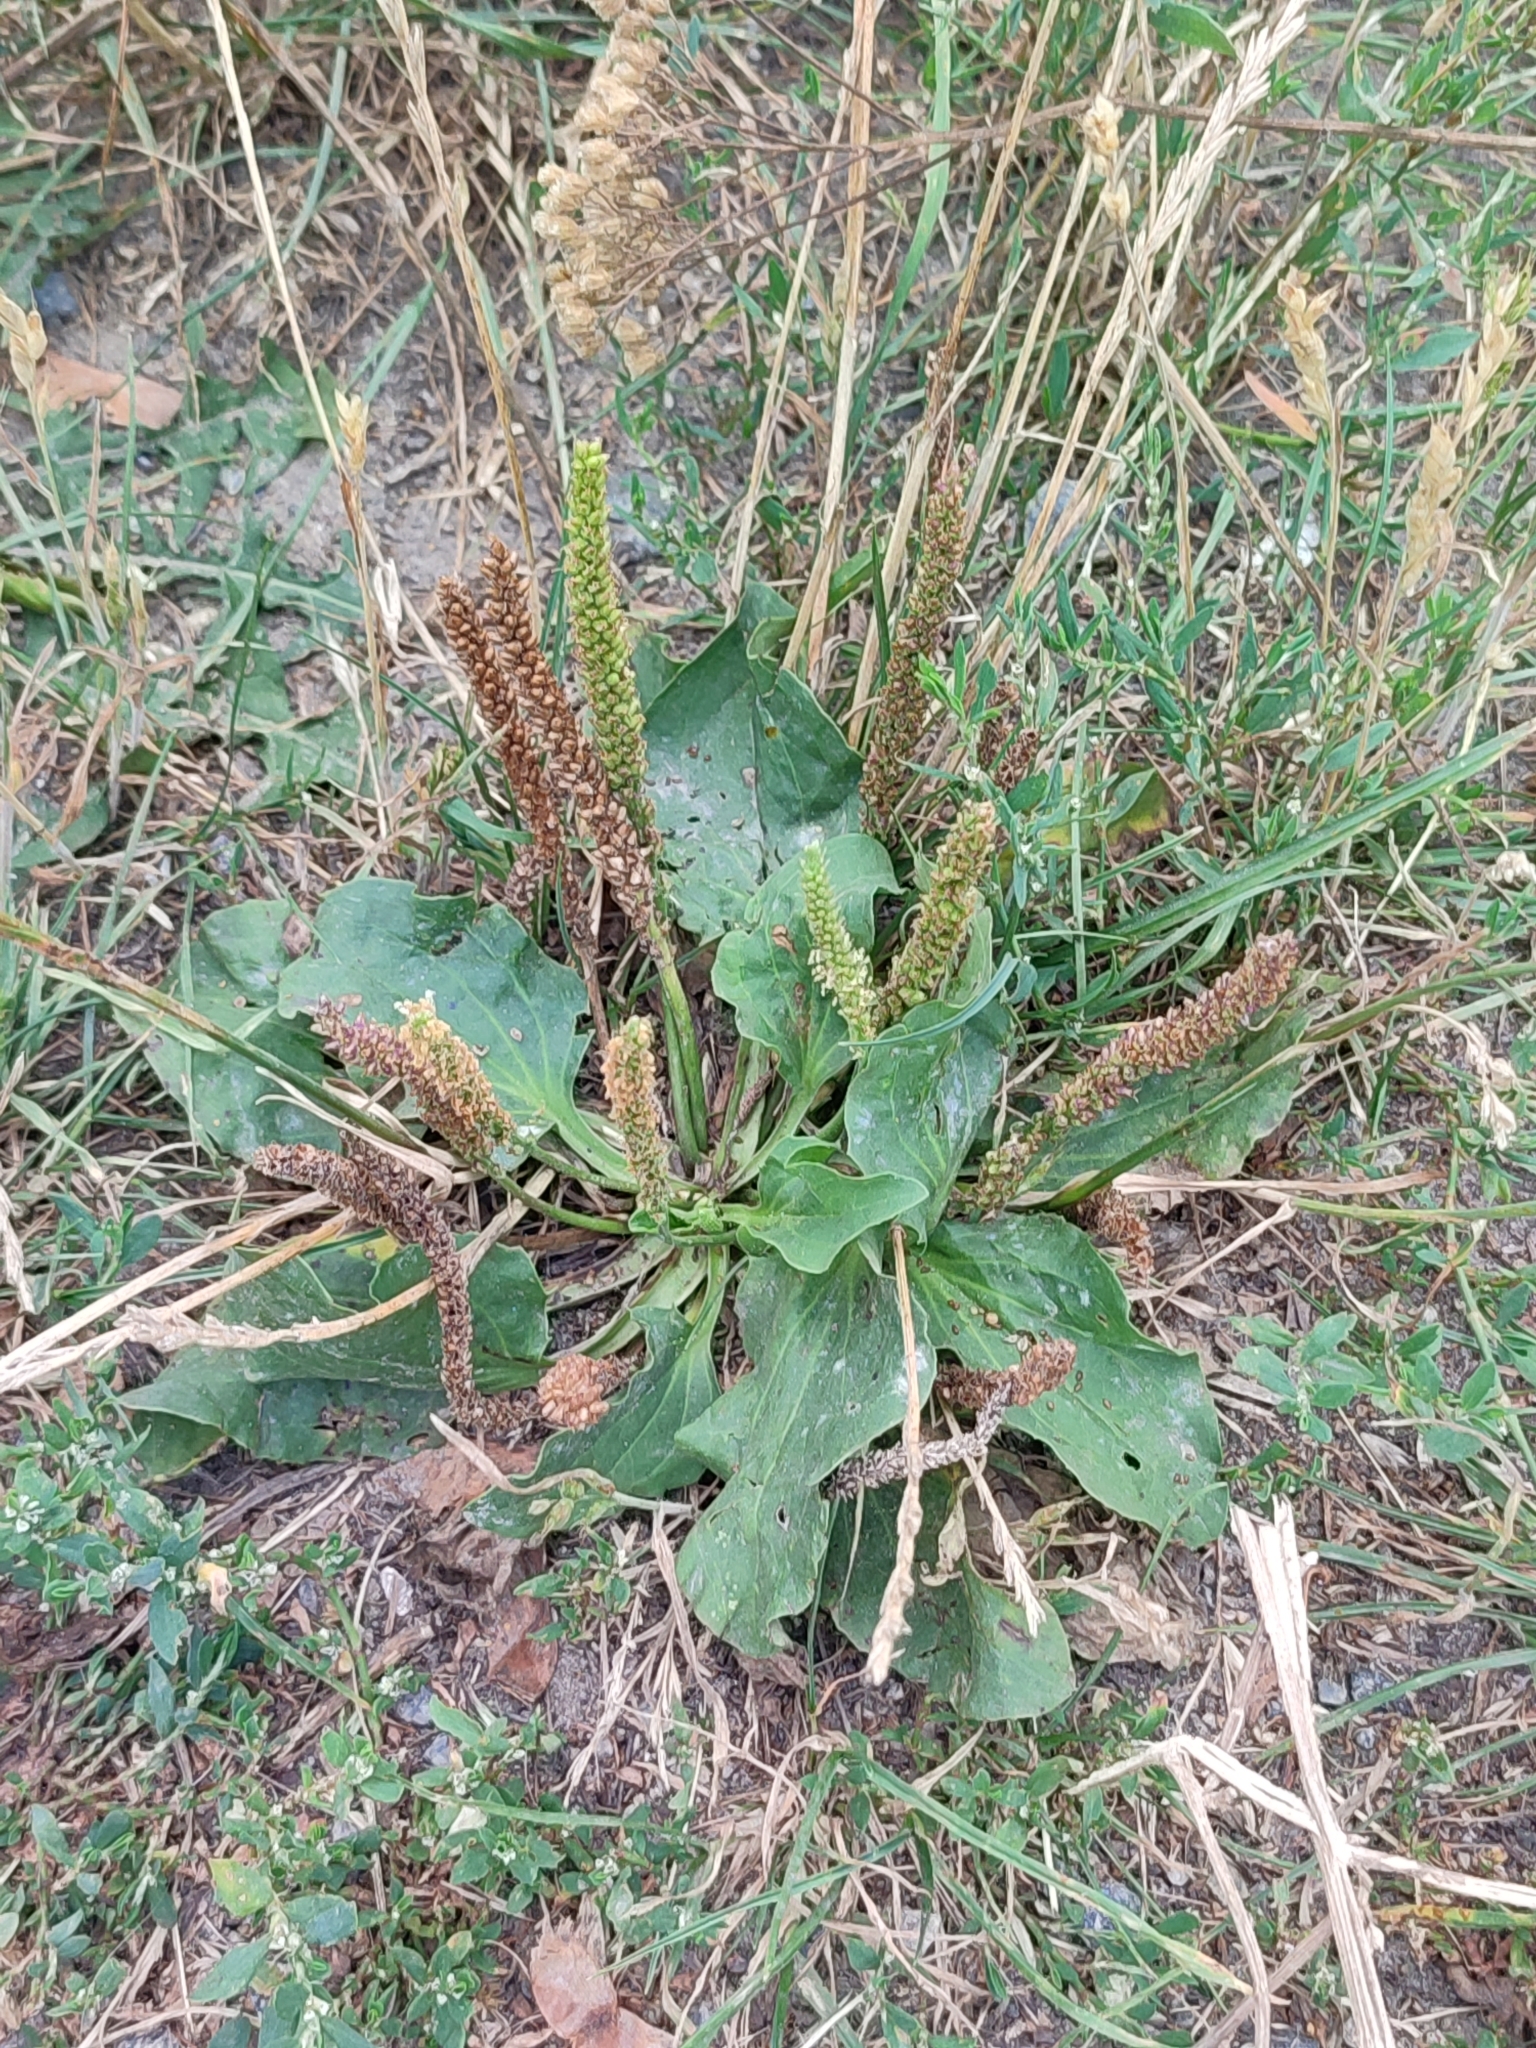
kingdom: Plantae
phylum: Tracheophyta
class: Magnoliopsida
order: Lamiales
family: Plantaginaceae
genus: Plantago
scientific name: Plantago major
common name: Common plantain
